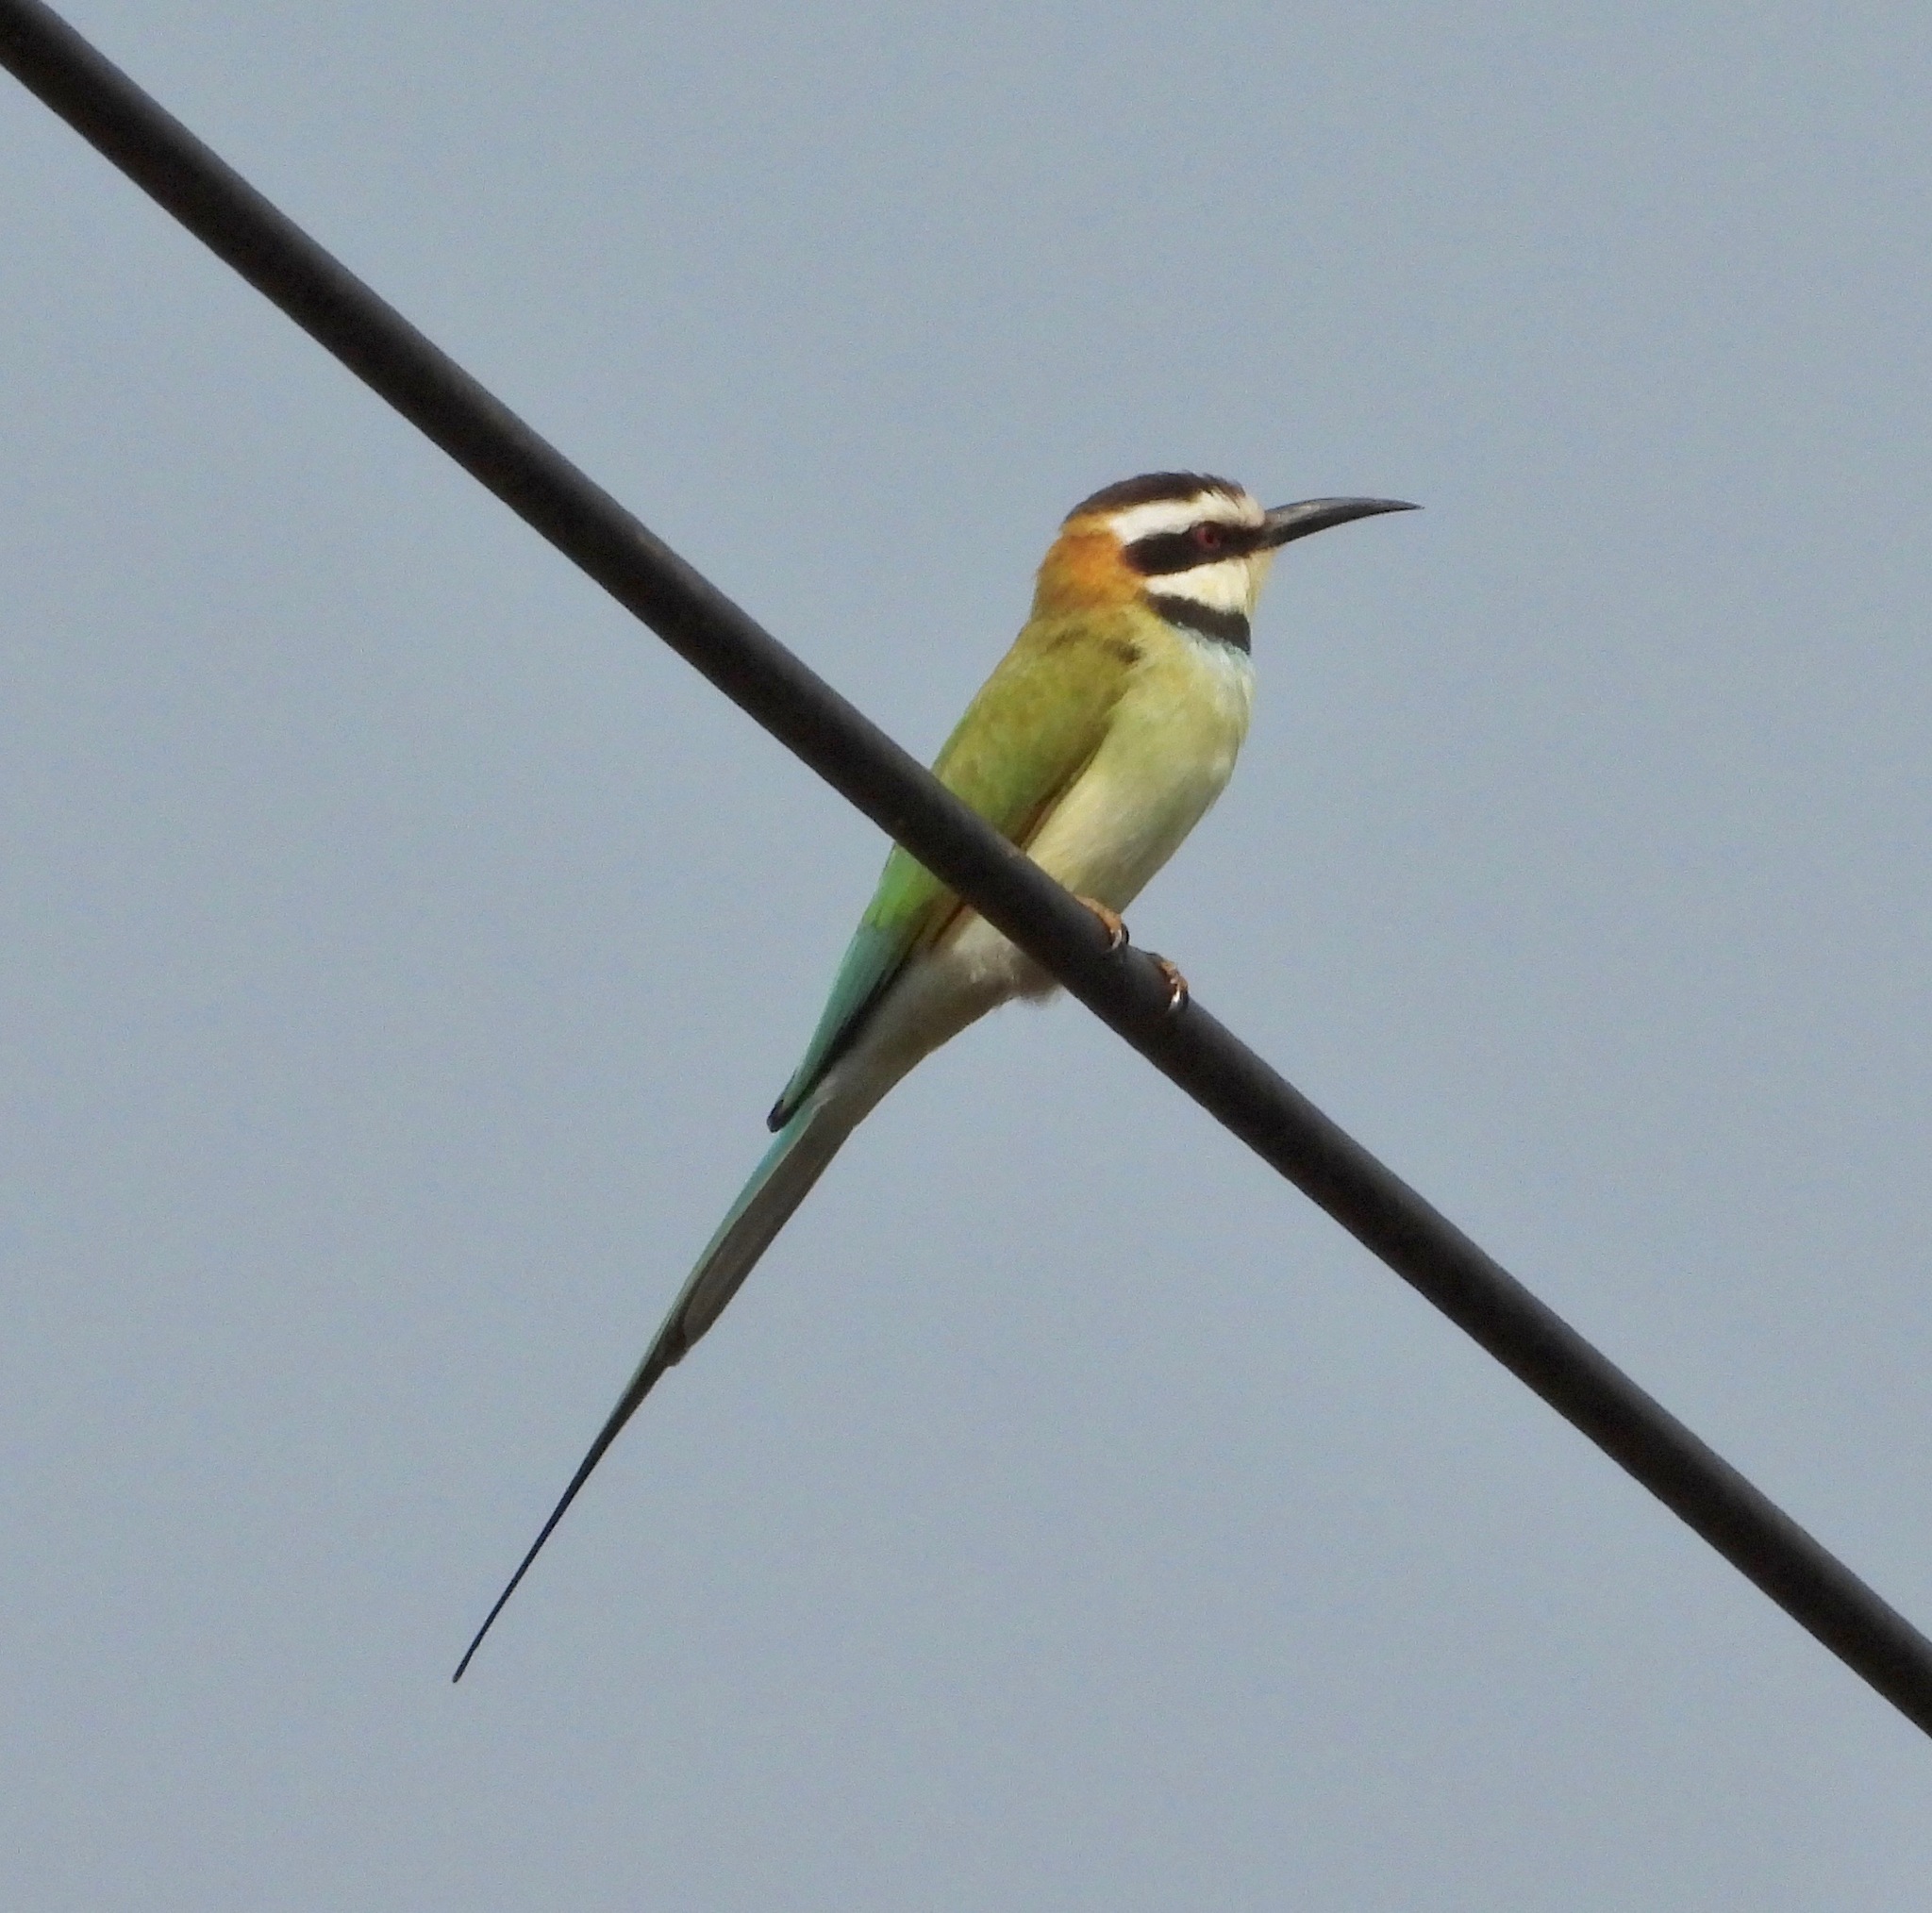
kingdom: Animalia
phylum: Chordata
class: Aves
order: Coraciiformes
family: Meropidae
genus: Merops
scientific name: Merops albicollis
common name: White-throated bee-eater
